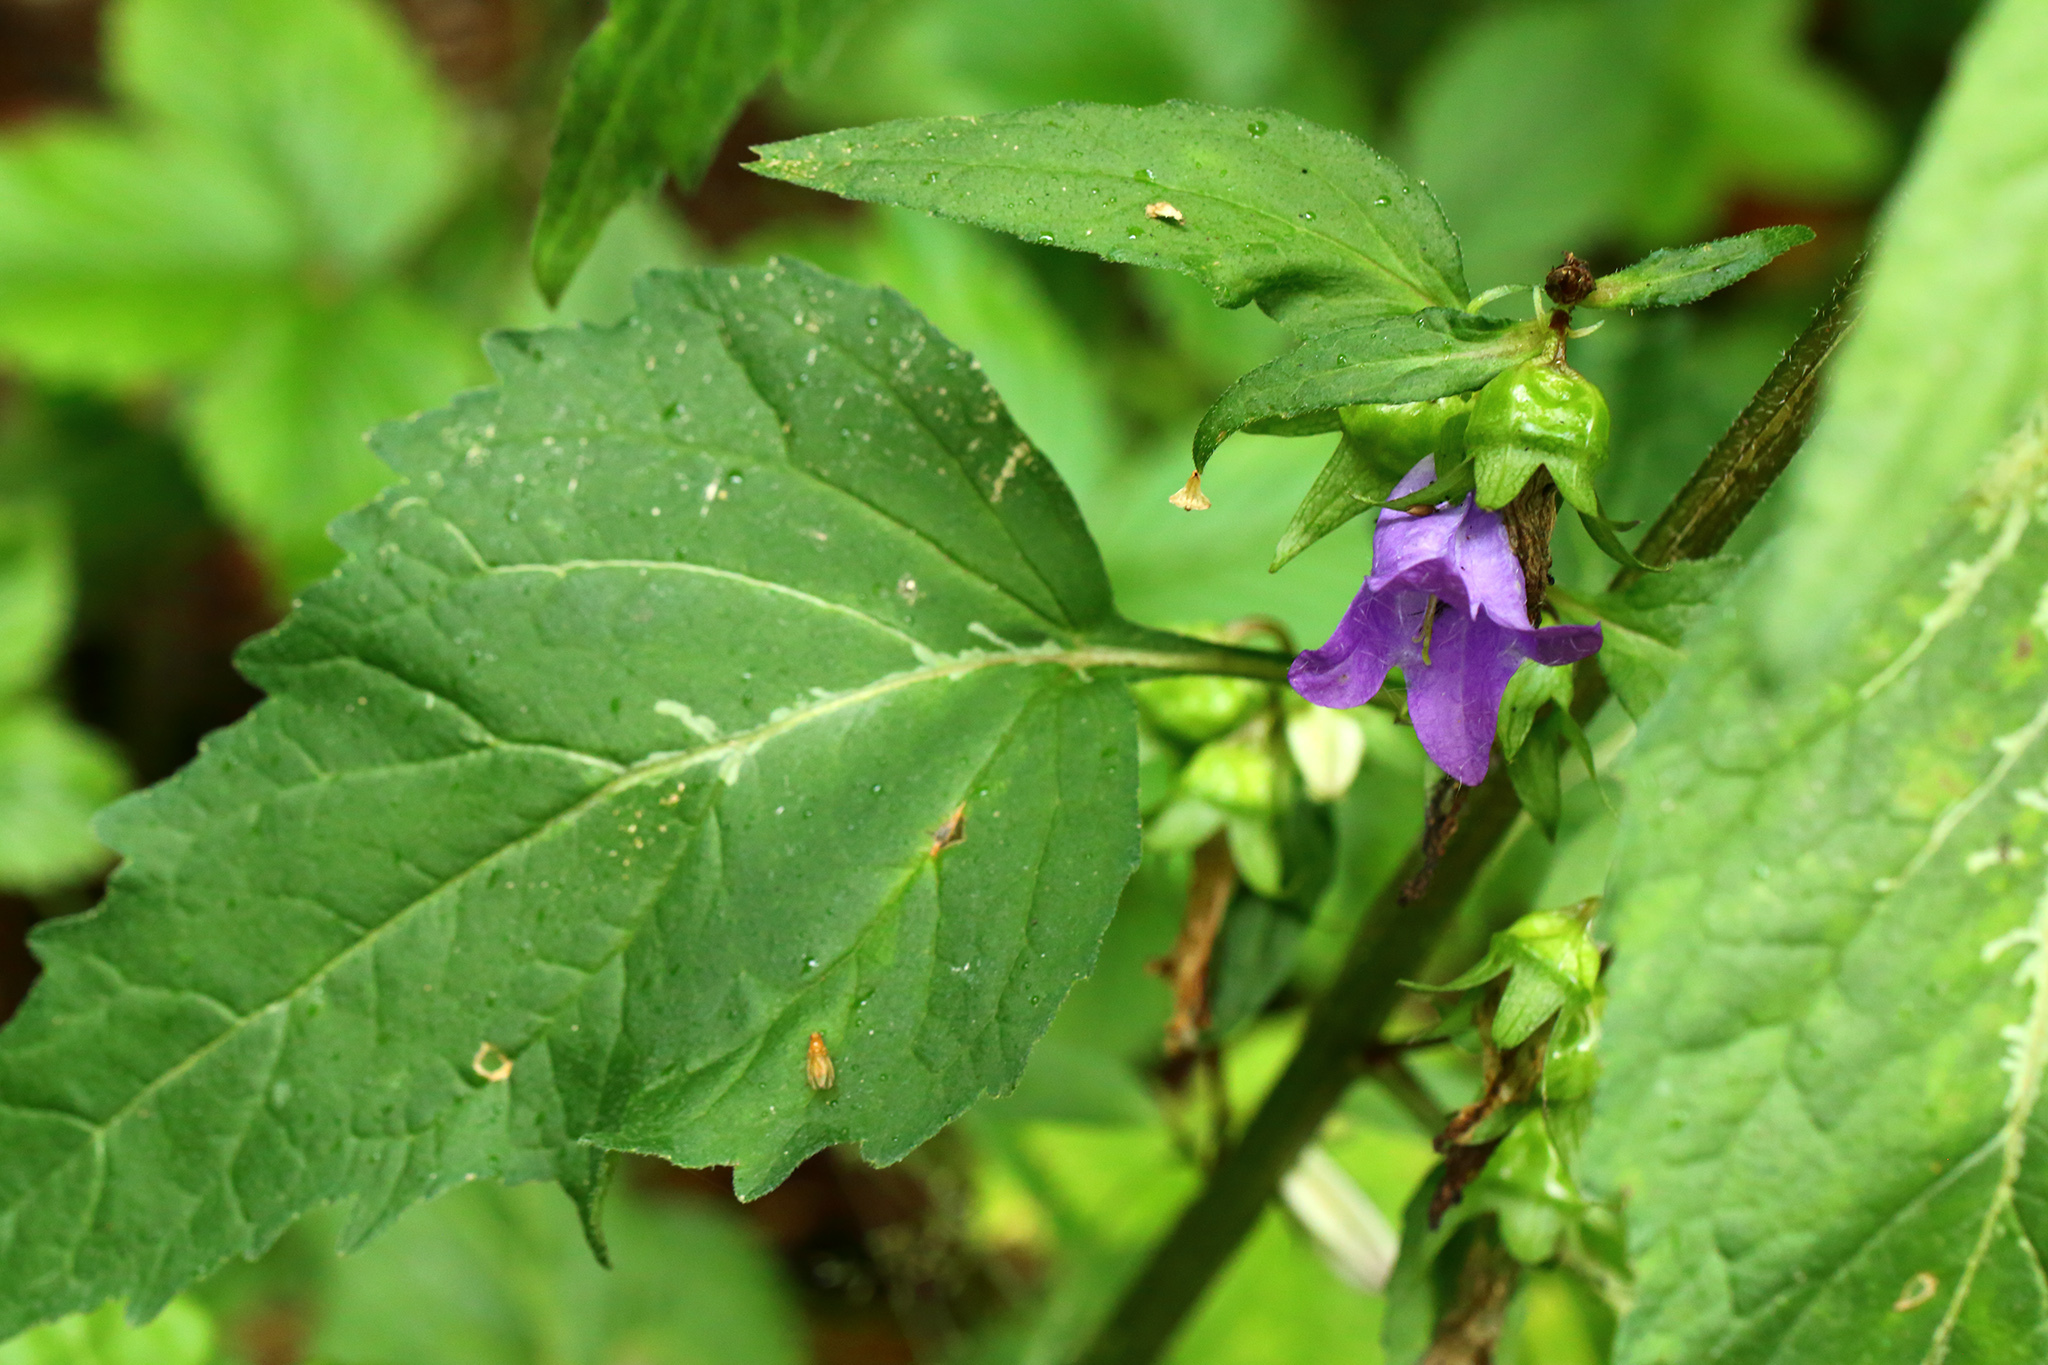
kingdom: Plantae
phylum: Tracheophyta
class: Magnoliopsida
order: Asterales
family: Campanulaceae
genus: Campanula
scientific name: Campanula trachelium
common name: Nettle-leaved bellflower
